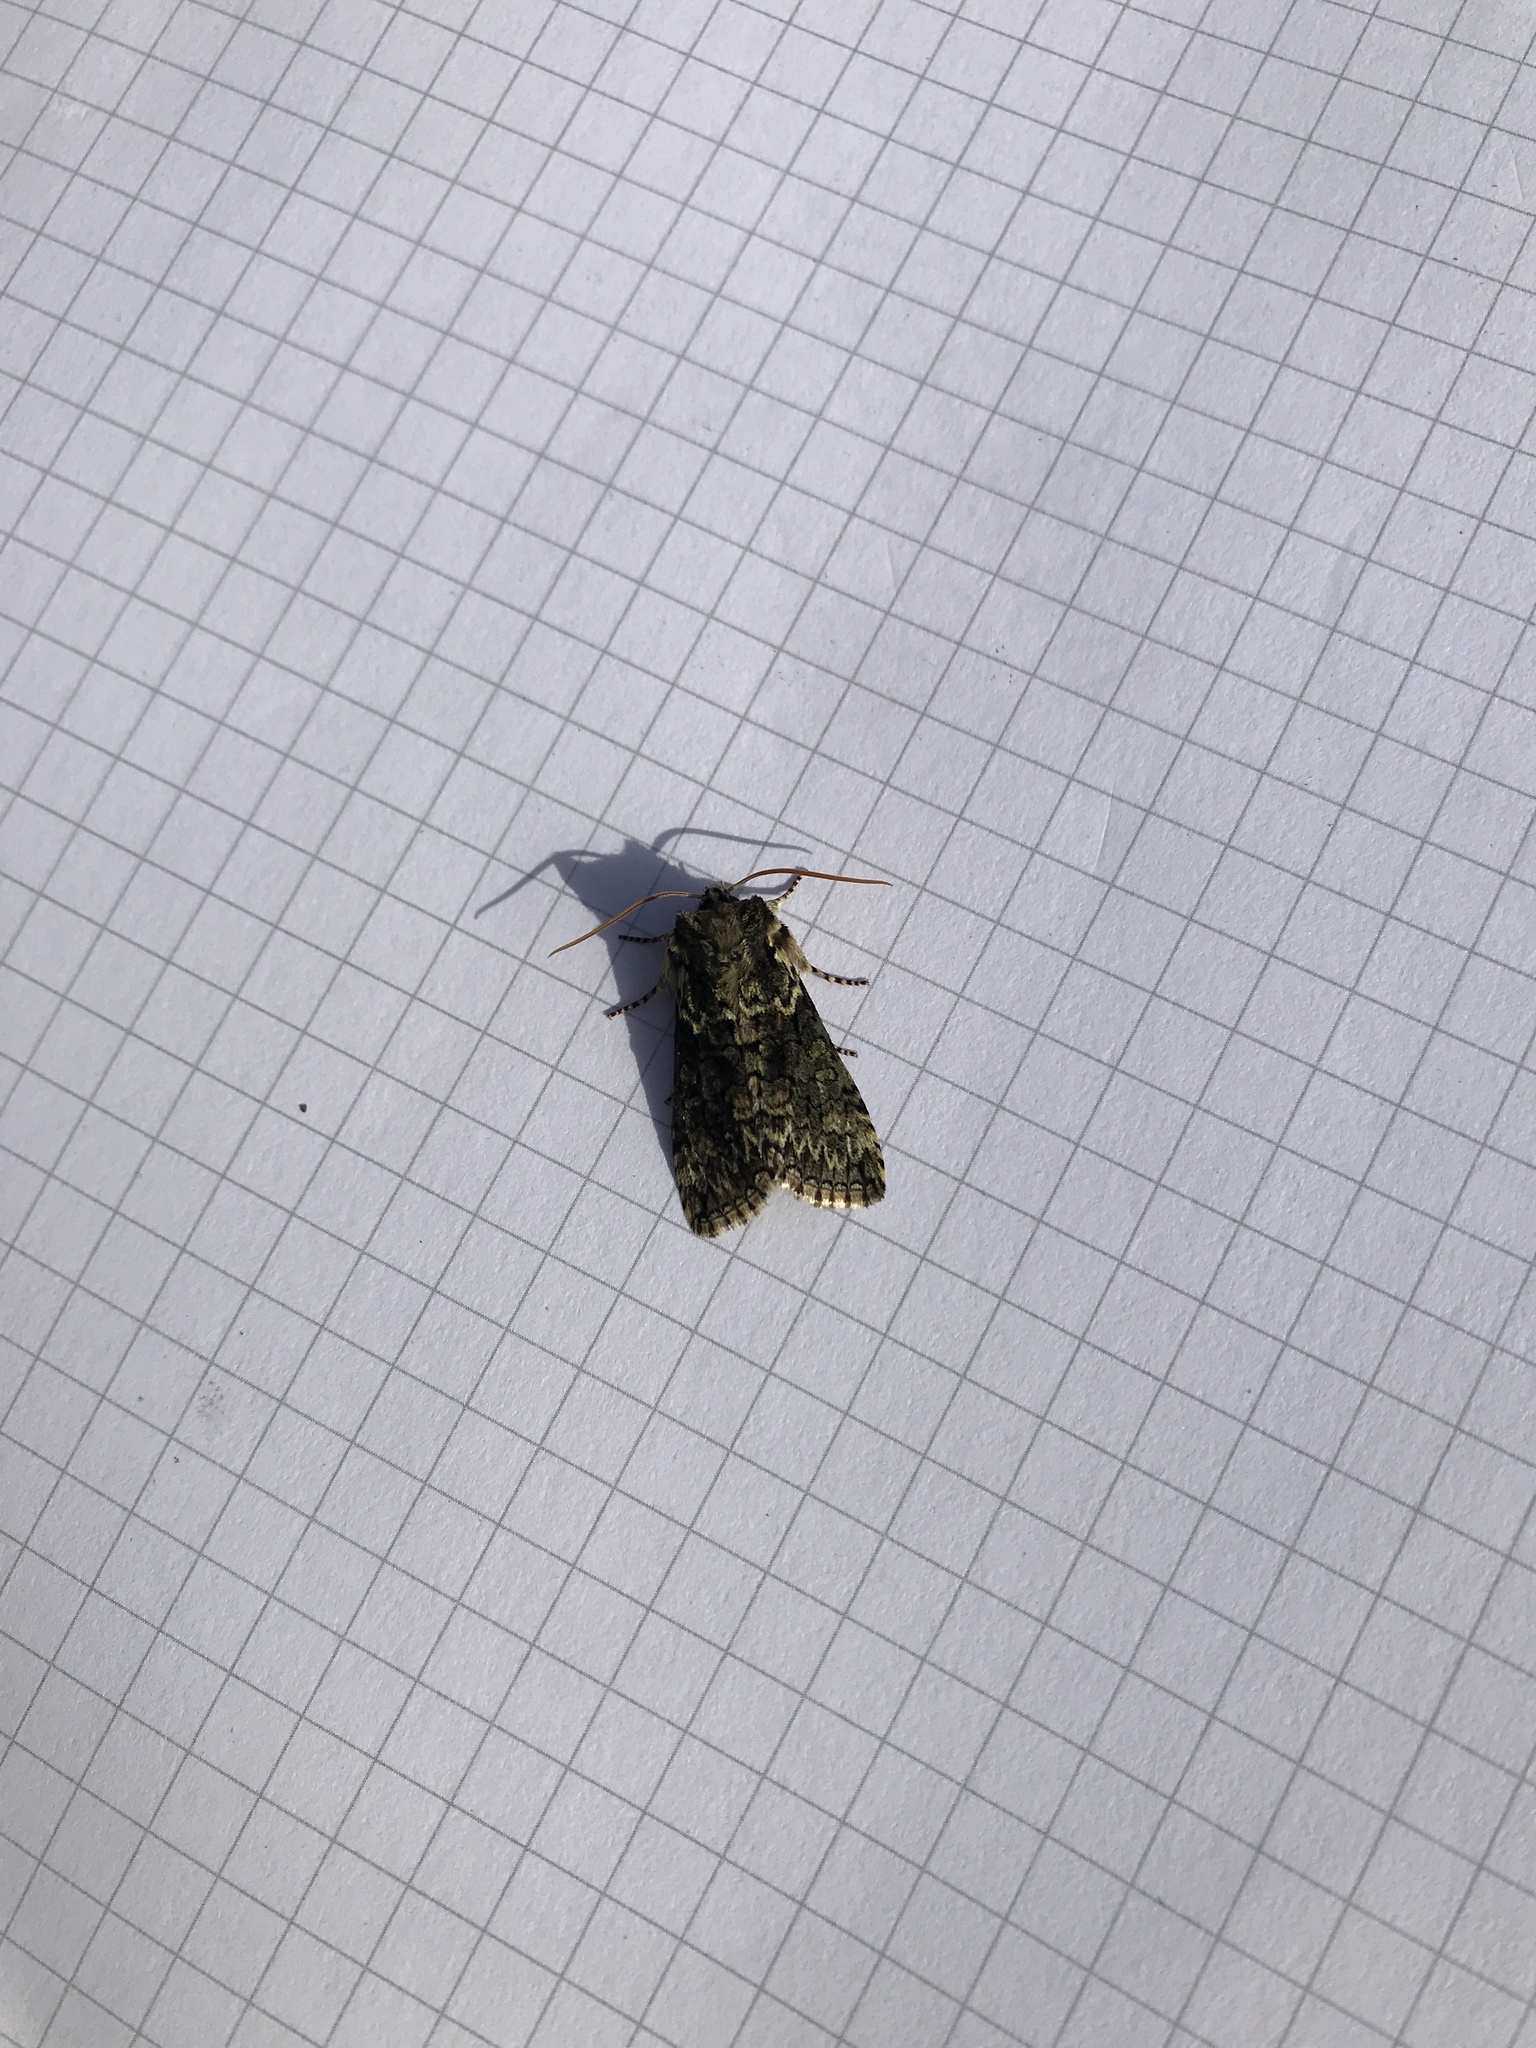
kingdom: Animalia
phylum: Arthropoda
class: Insecta
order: Lepidoptera
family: Drepanidae
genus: Polyploca
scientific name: Polyploca ridens
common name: Frosted green
